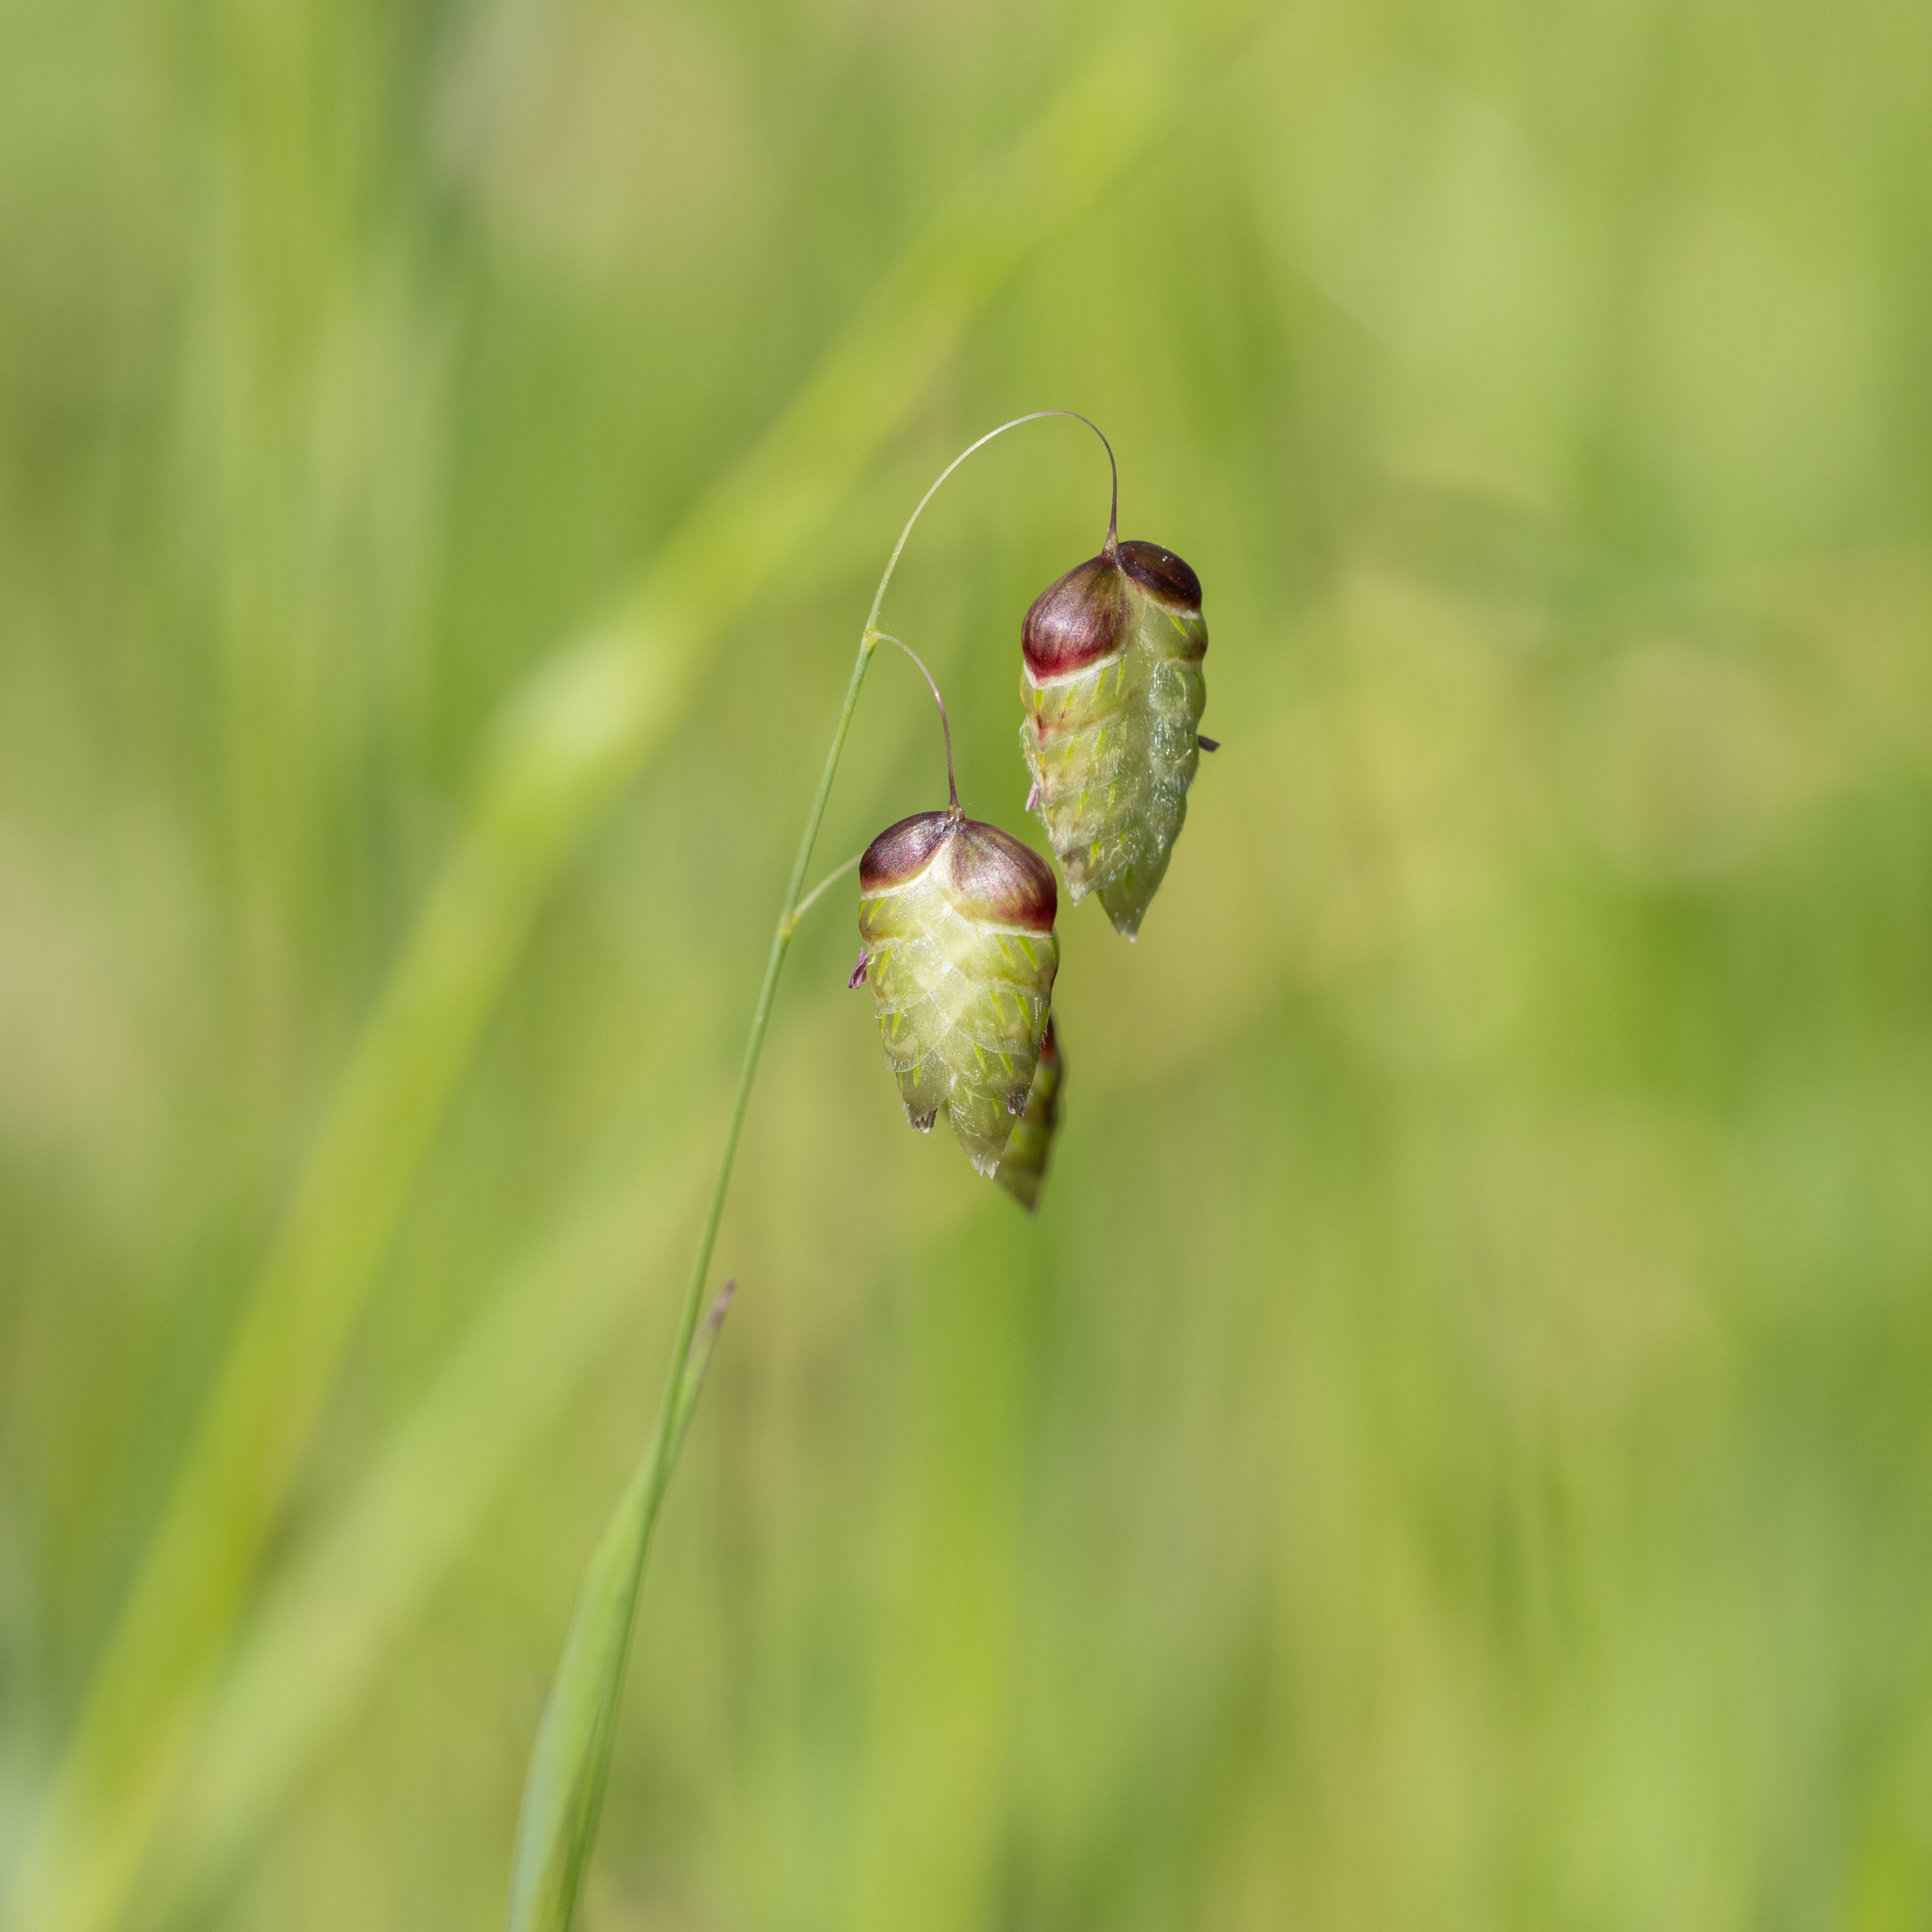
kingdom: Plantae
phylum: Tracheophyta
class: Liliopsida
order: Poales
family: Poaceae
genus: Briza
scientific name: Briza maxima
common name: Big quakinggrass
